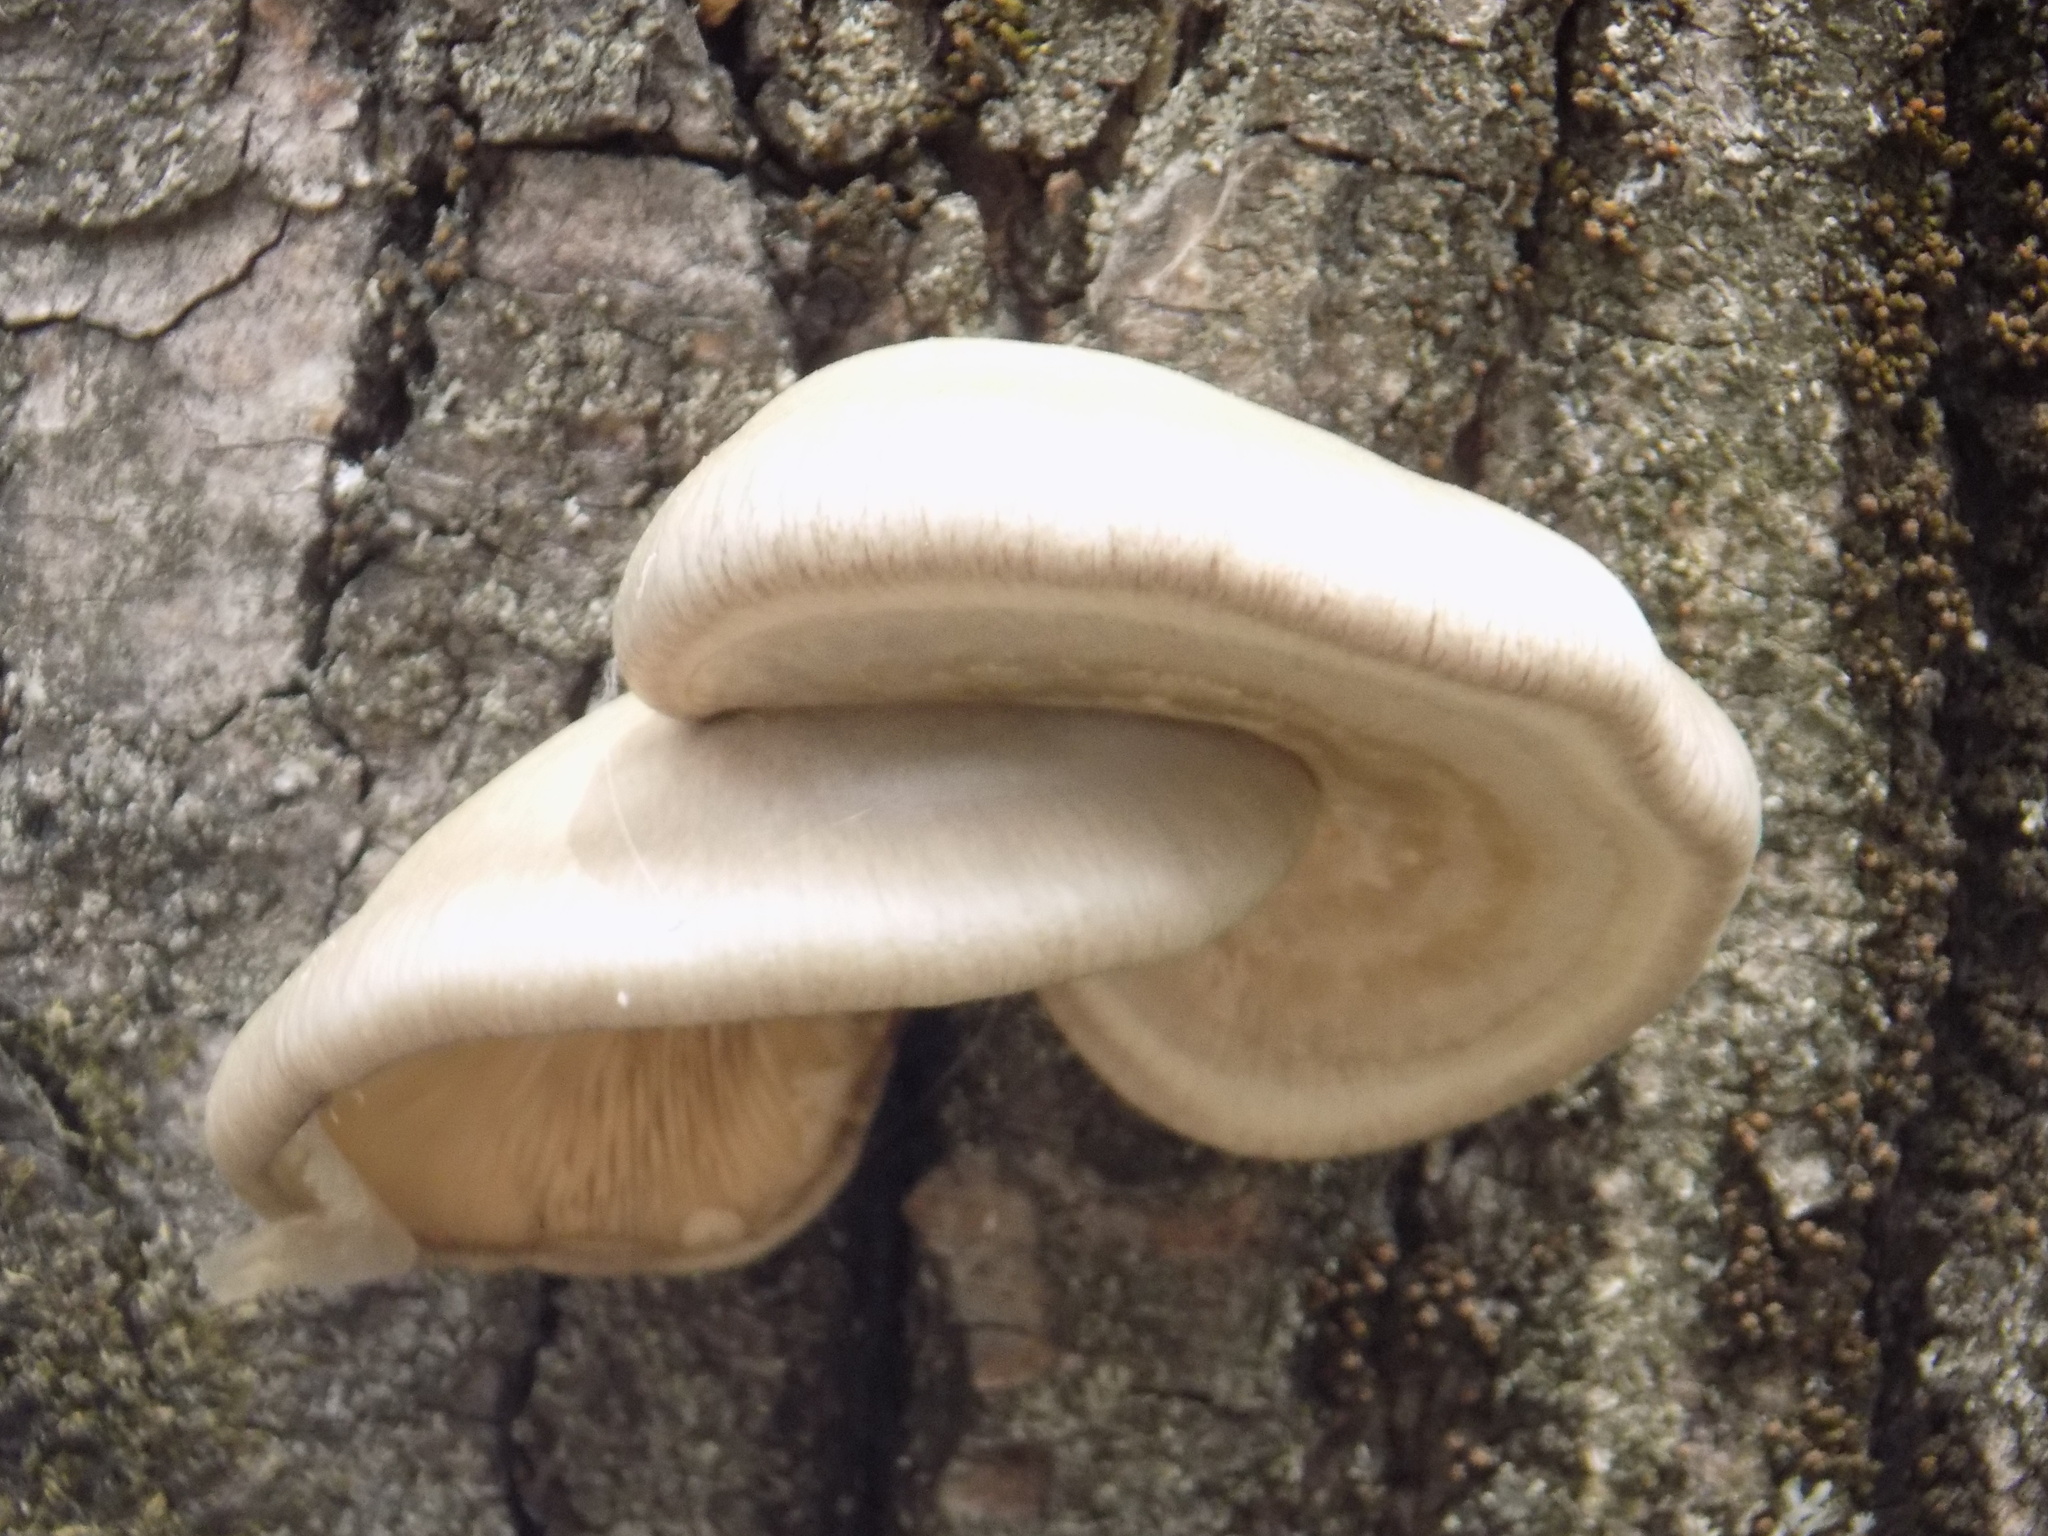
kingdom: Fungi
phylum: Basidiomycota
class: Agaricomycetes
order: Agaricales
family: Pleurotaceae
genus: Pleurotus
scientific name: Pleurotus calyptratus
